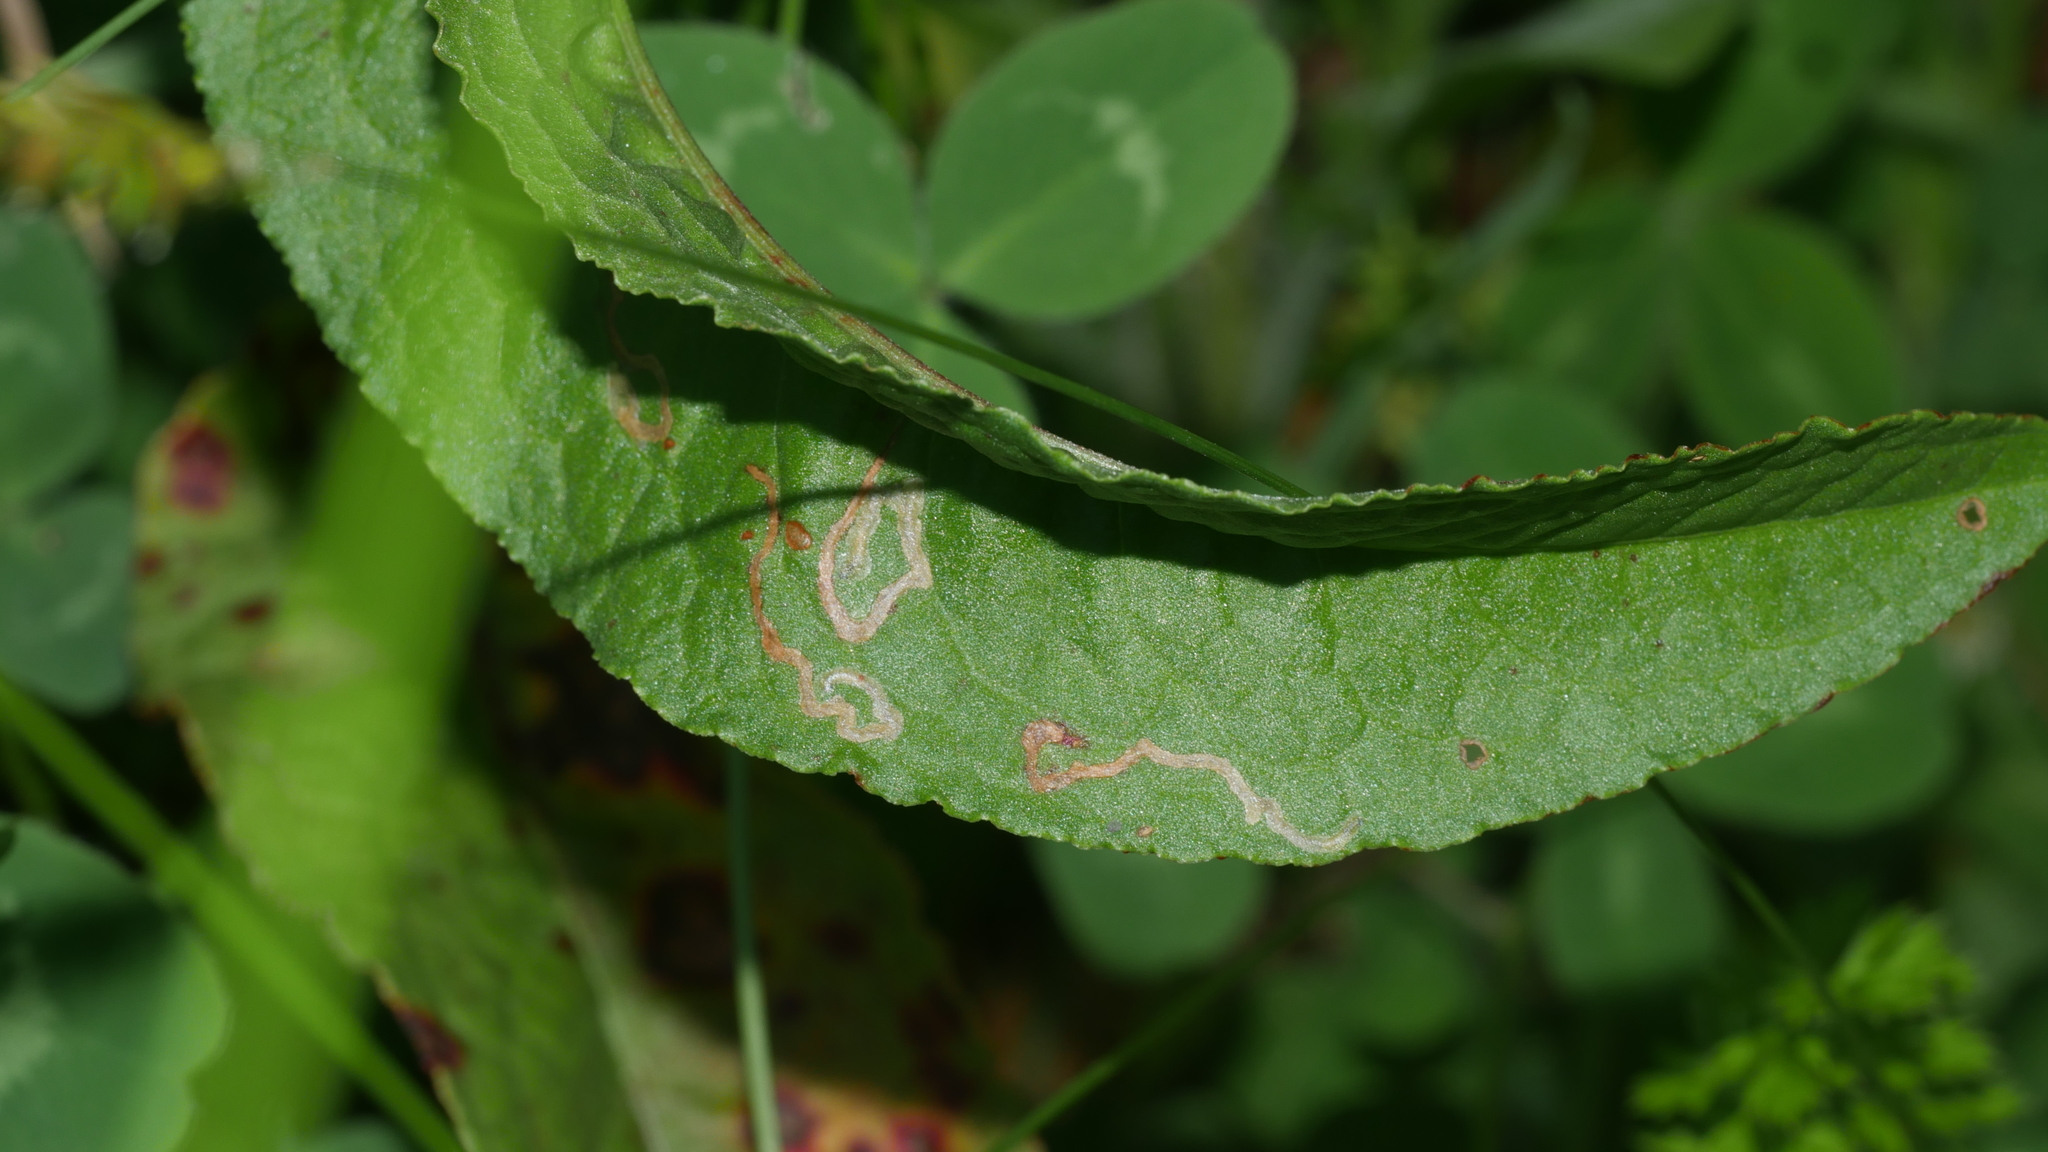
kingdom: Animalia
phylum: Arthropoda
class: Insecta
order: Diptera
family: Anthomyiidae
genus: Pegomya
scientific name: Pegomya bicolor
